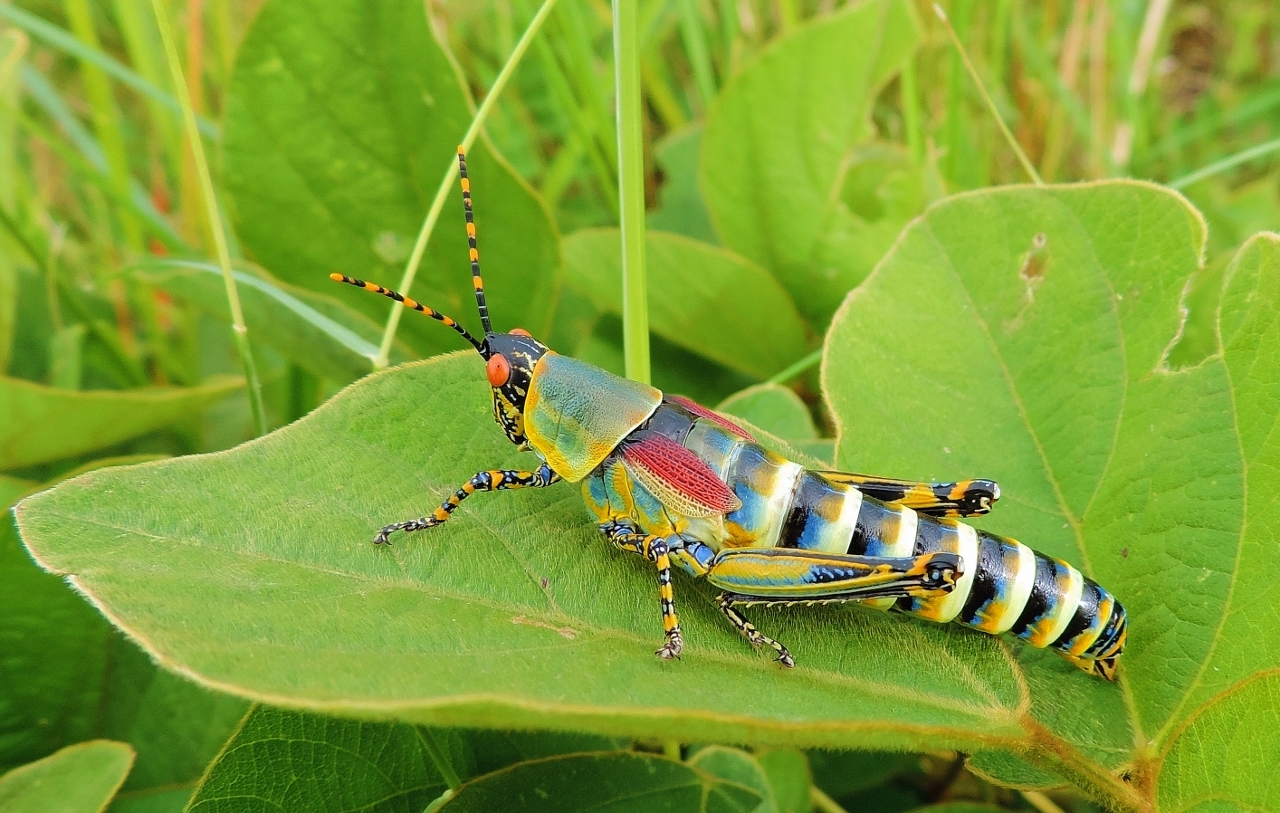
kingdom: Animalia
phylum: Arthropoda
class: Insecta
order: Orthoptera
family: Pyrgomorphidae
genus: Zonocerus
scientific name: Zonocerus elegans
